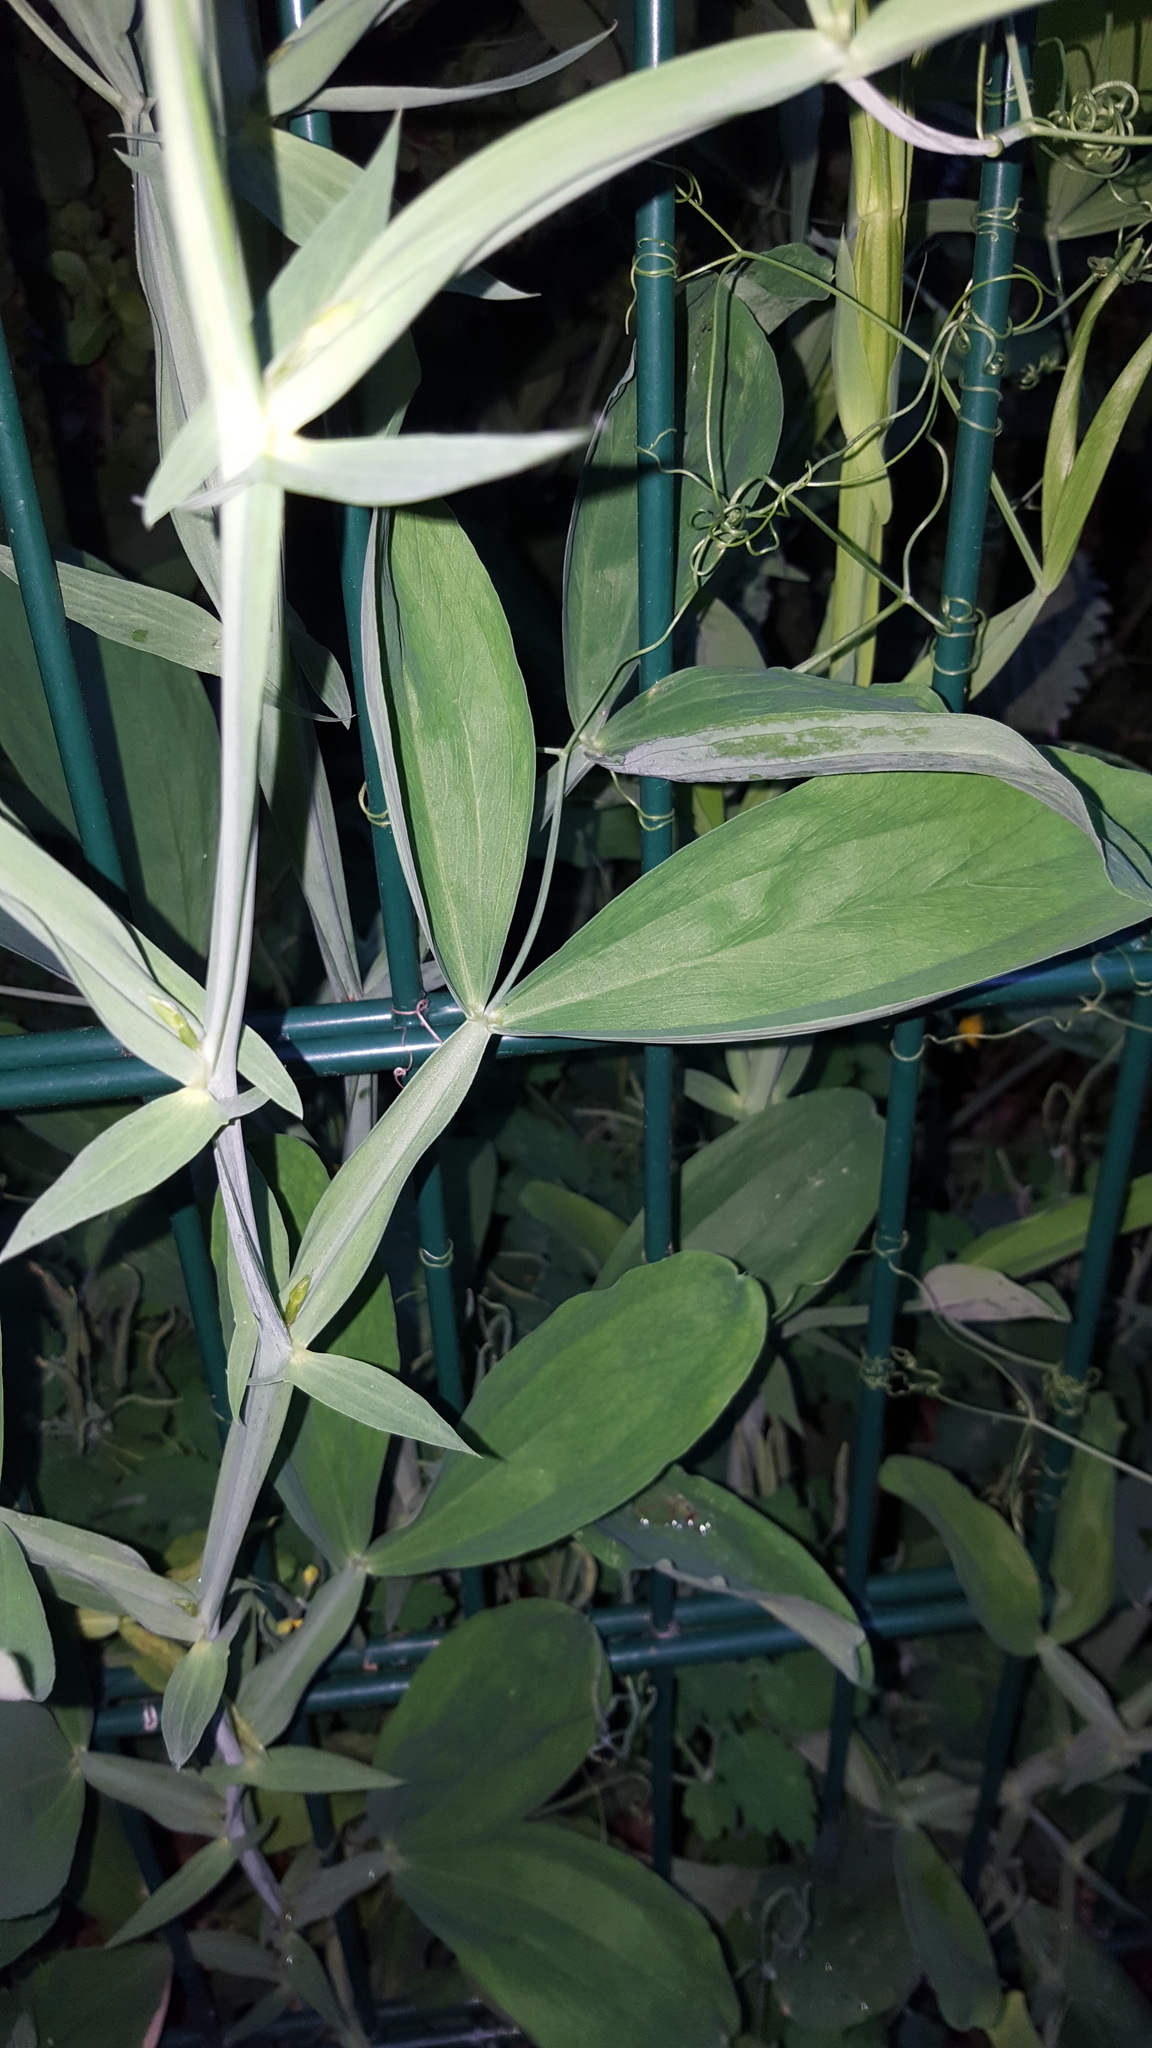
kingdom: Plantae
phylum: Tracheophyta
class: Magnoliopsida
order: Fabales
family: Fabaceae
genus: Lathyrus
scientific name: Lathyrus latifolius
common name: Perennial pea
